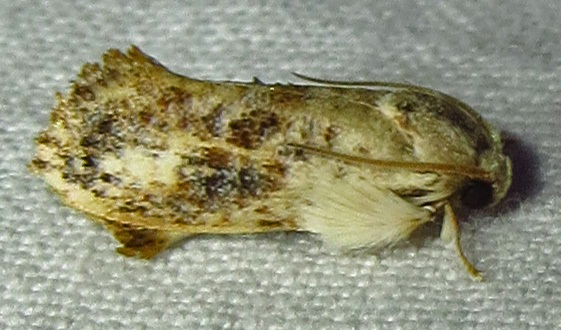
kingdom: Animalia
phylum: Arthropoda
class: Insecta
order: Lepidoptera
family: Tineidae
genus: Acrolophus
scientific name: Acrolophus mycetophagus
